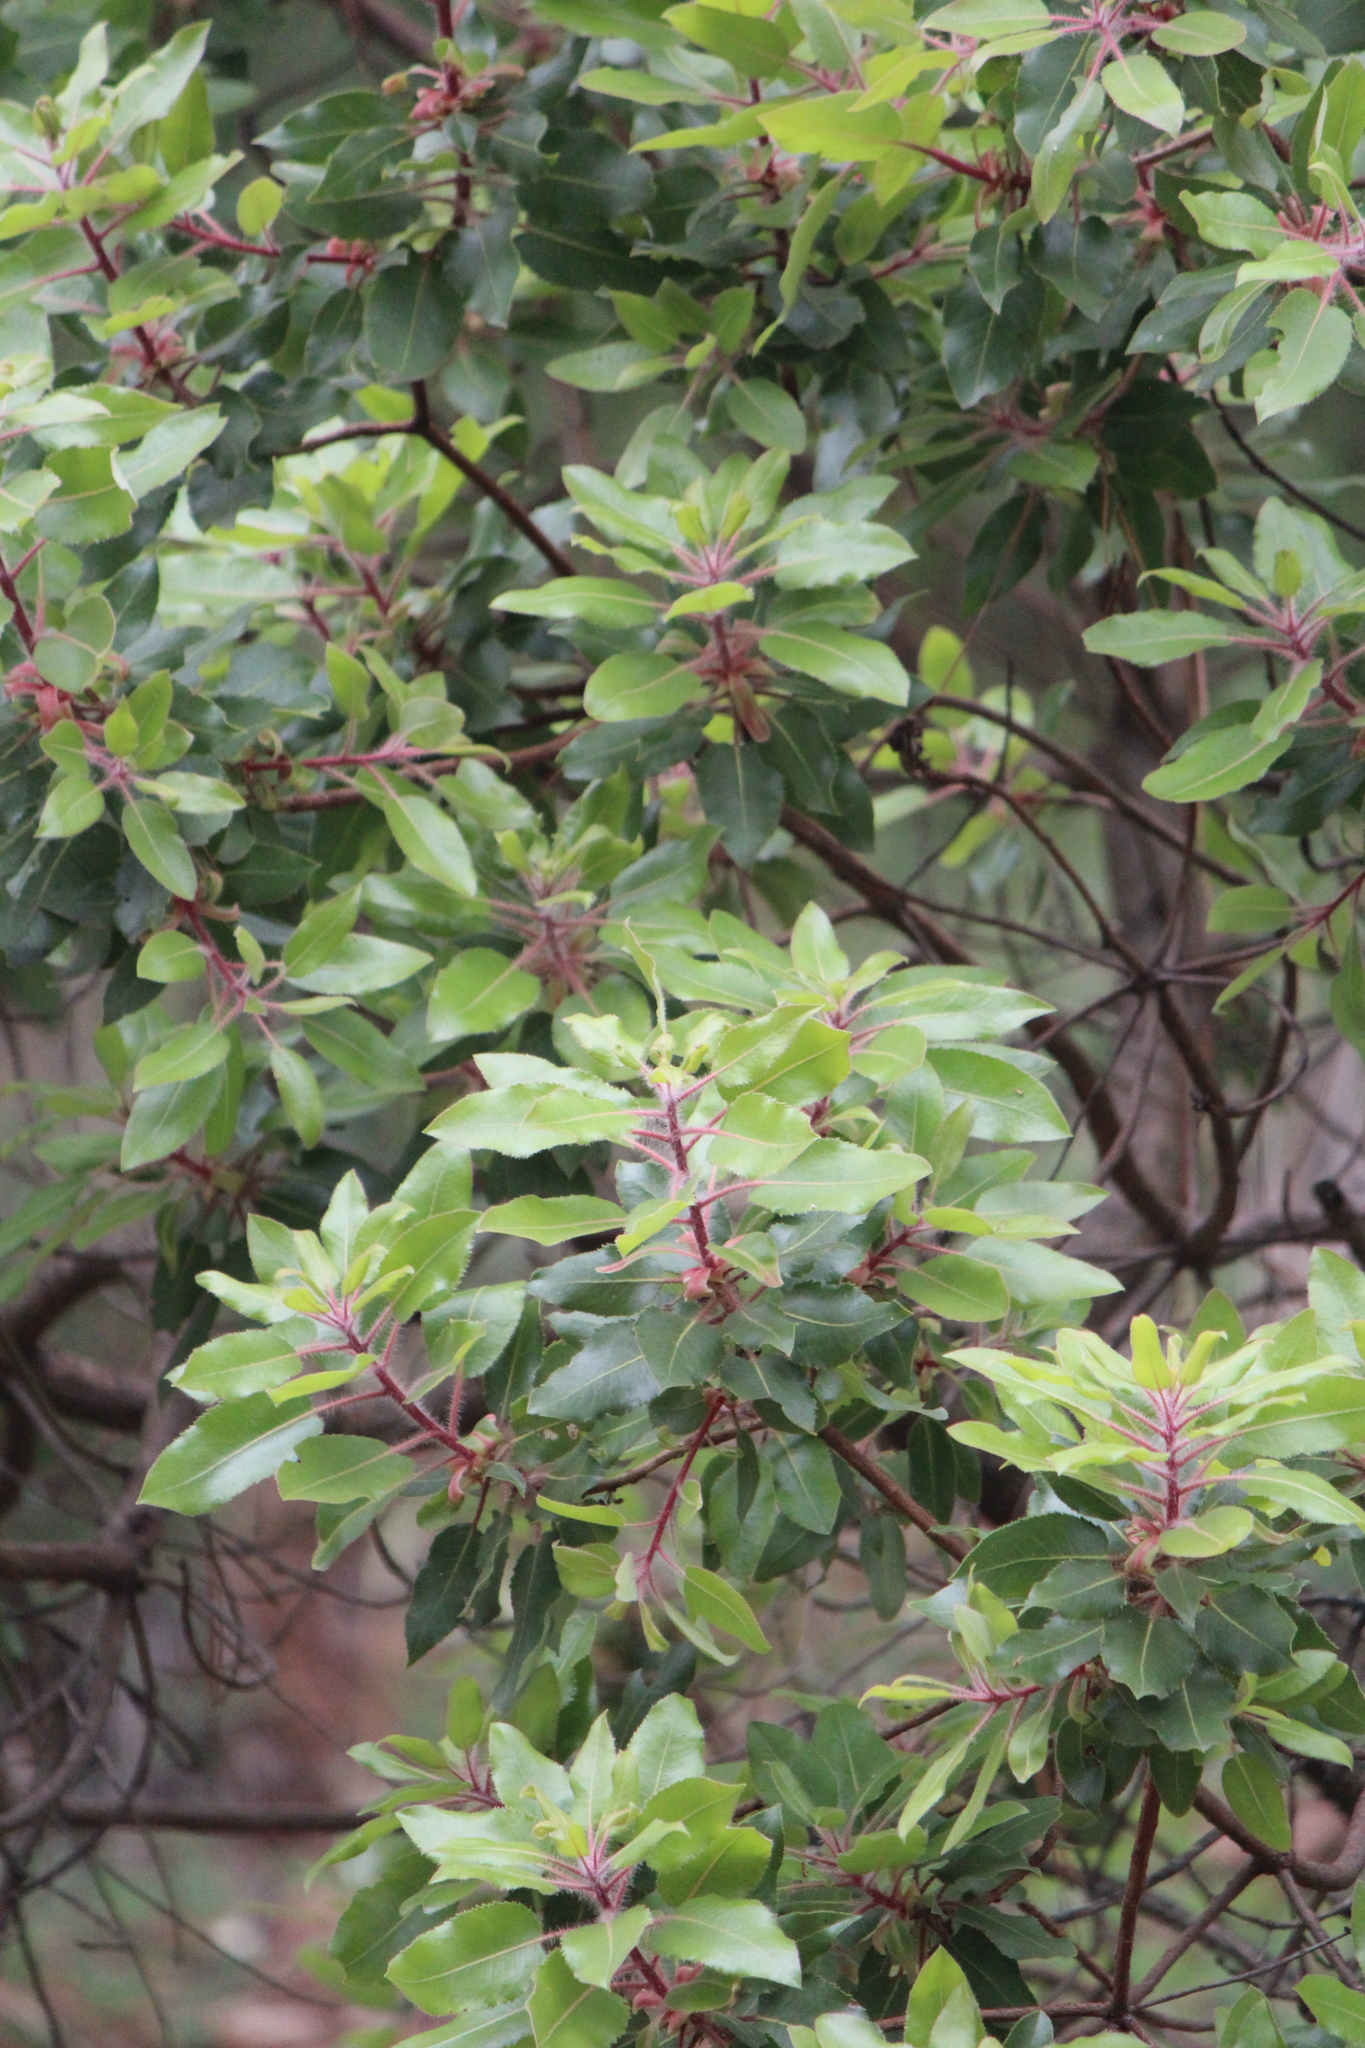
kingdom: Plantae
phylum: Tracheophyta
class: Magnoliopsida
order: Ericales
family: Ericaceae
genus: Arbutus
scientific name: Arbutus tessellata
